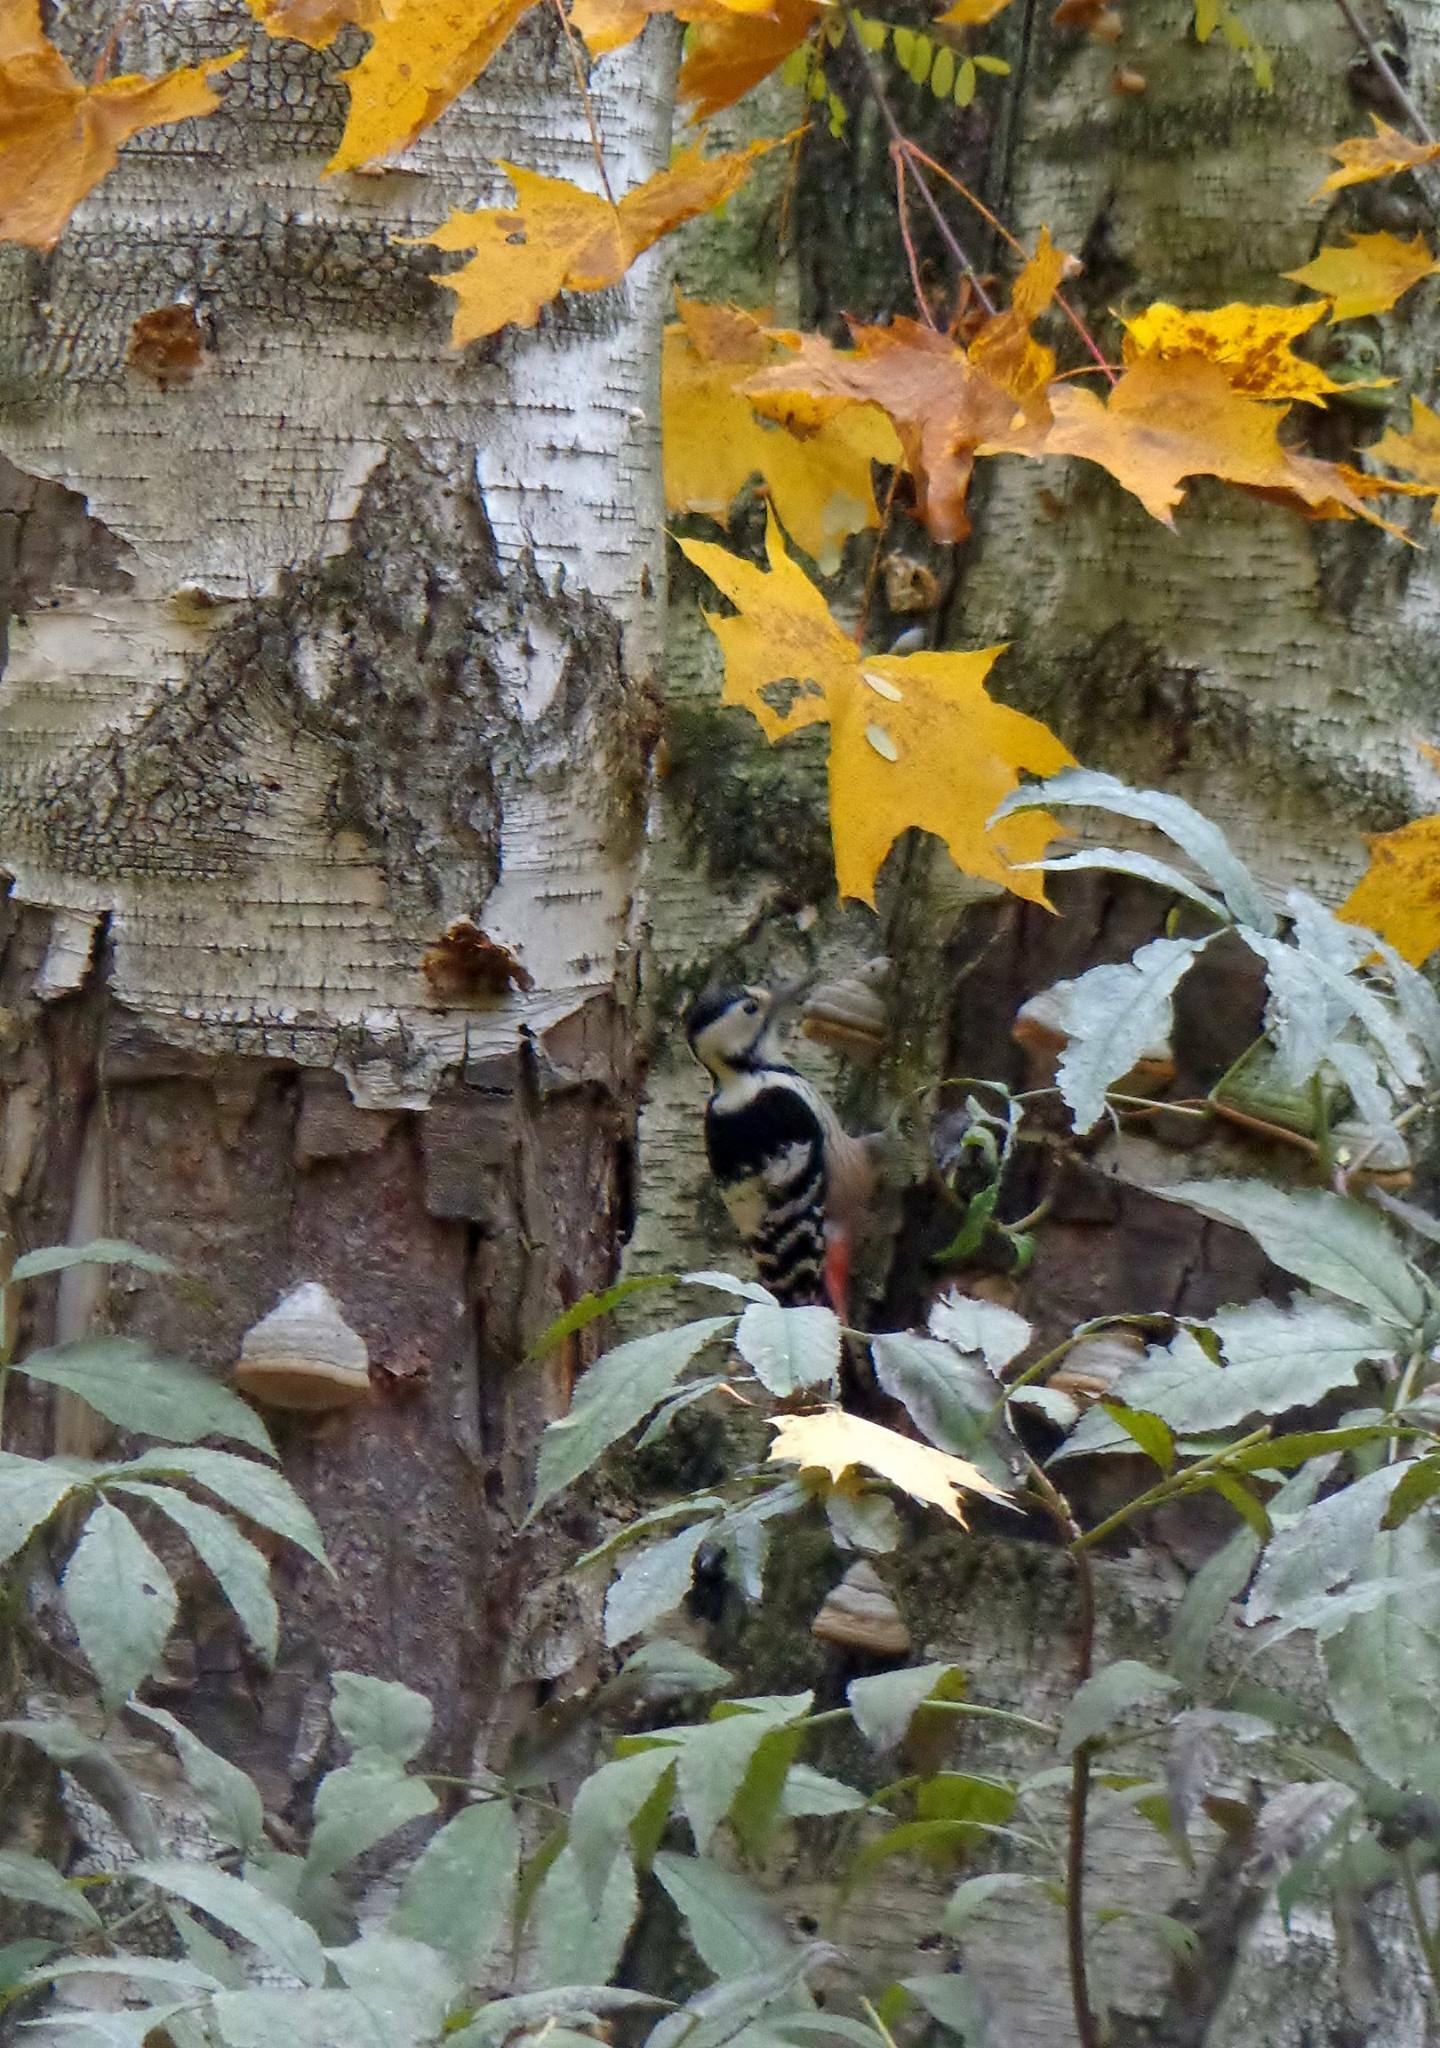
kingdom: Animalia
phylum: Chordata
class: Aves
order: Piciformes
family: Picidae
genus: Dendrocopos
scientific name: Dendrocopos leucotos
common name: White-backed woodpecker
